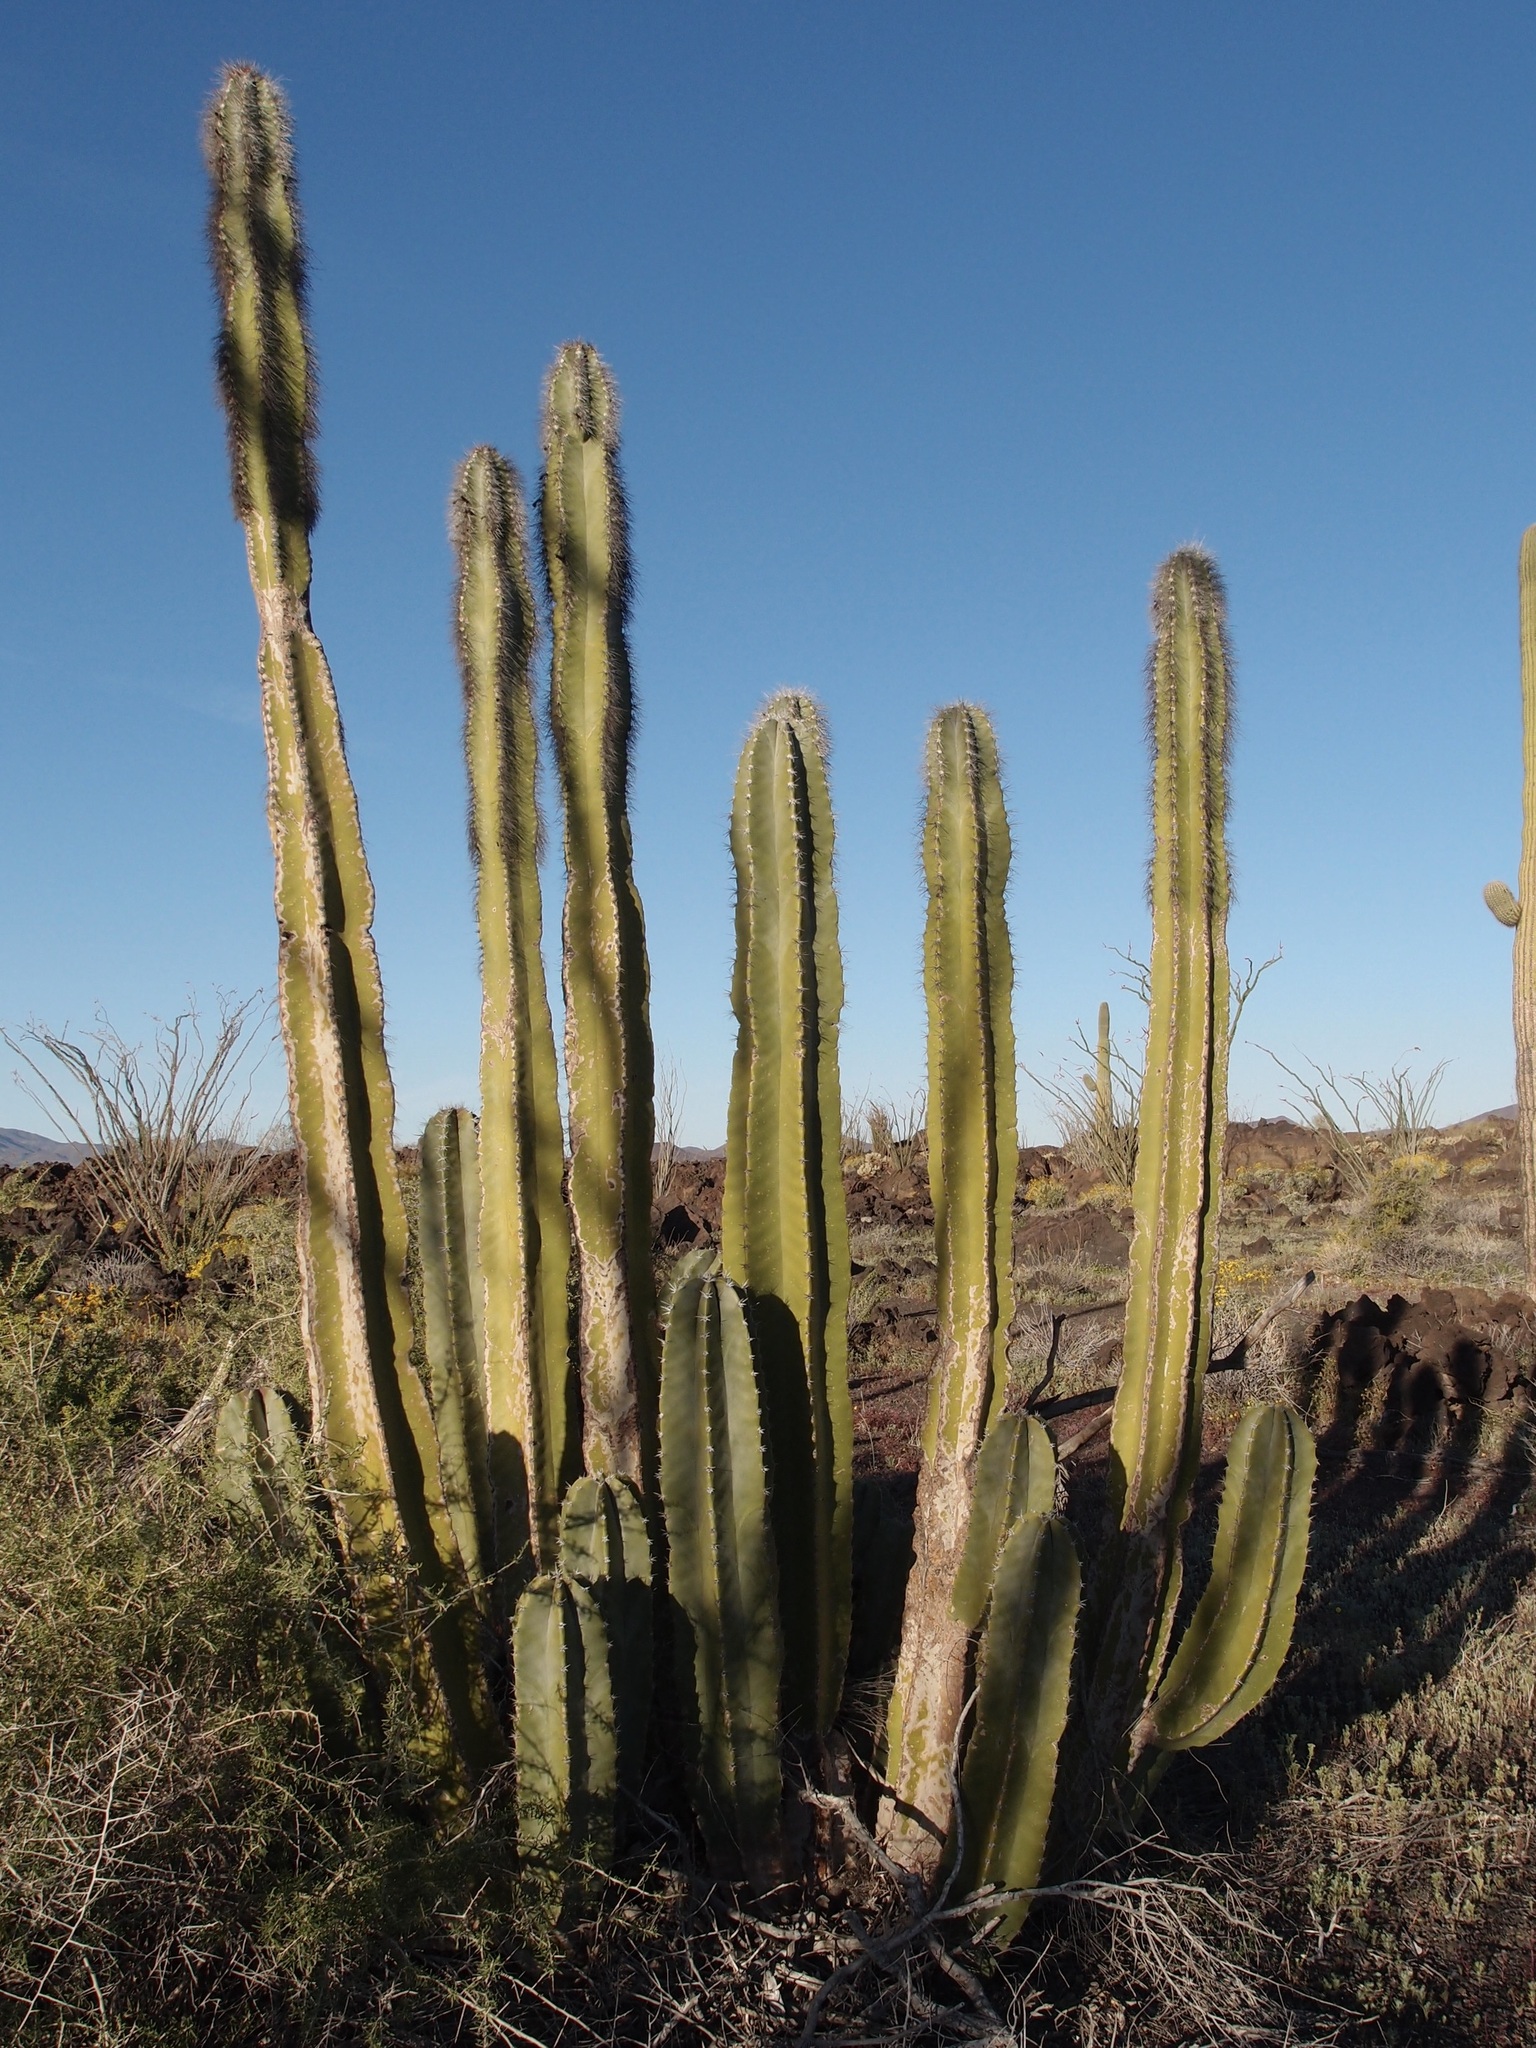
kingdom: Plantae
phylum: Tracheophyta
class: Magnoliopsida
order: Caryophyllales
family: Cactaceae
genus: Pachycereus
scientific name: Pachycereus schottii
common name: Senita cactus
